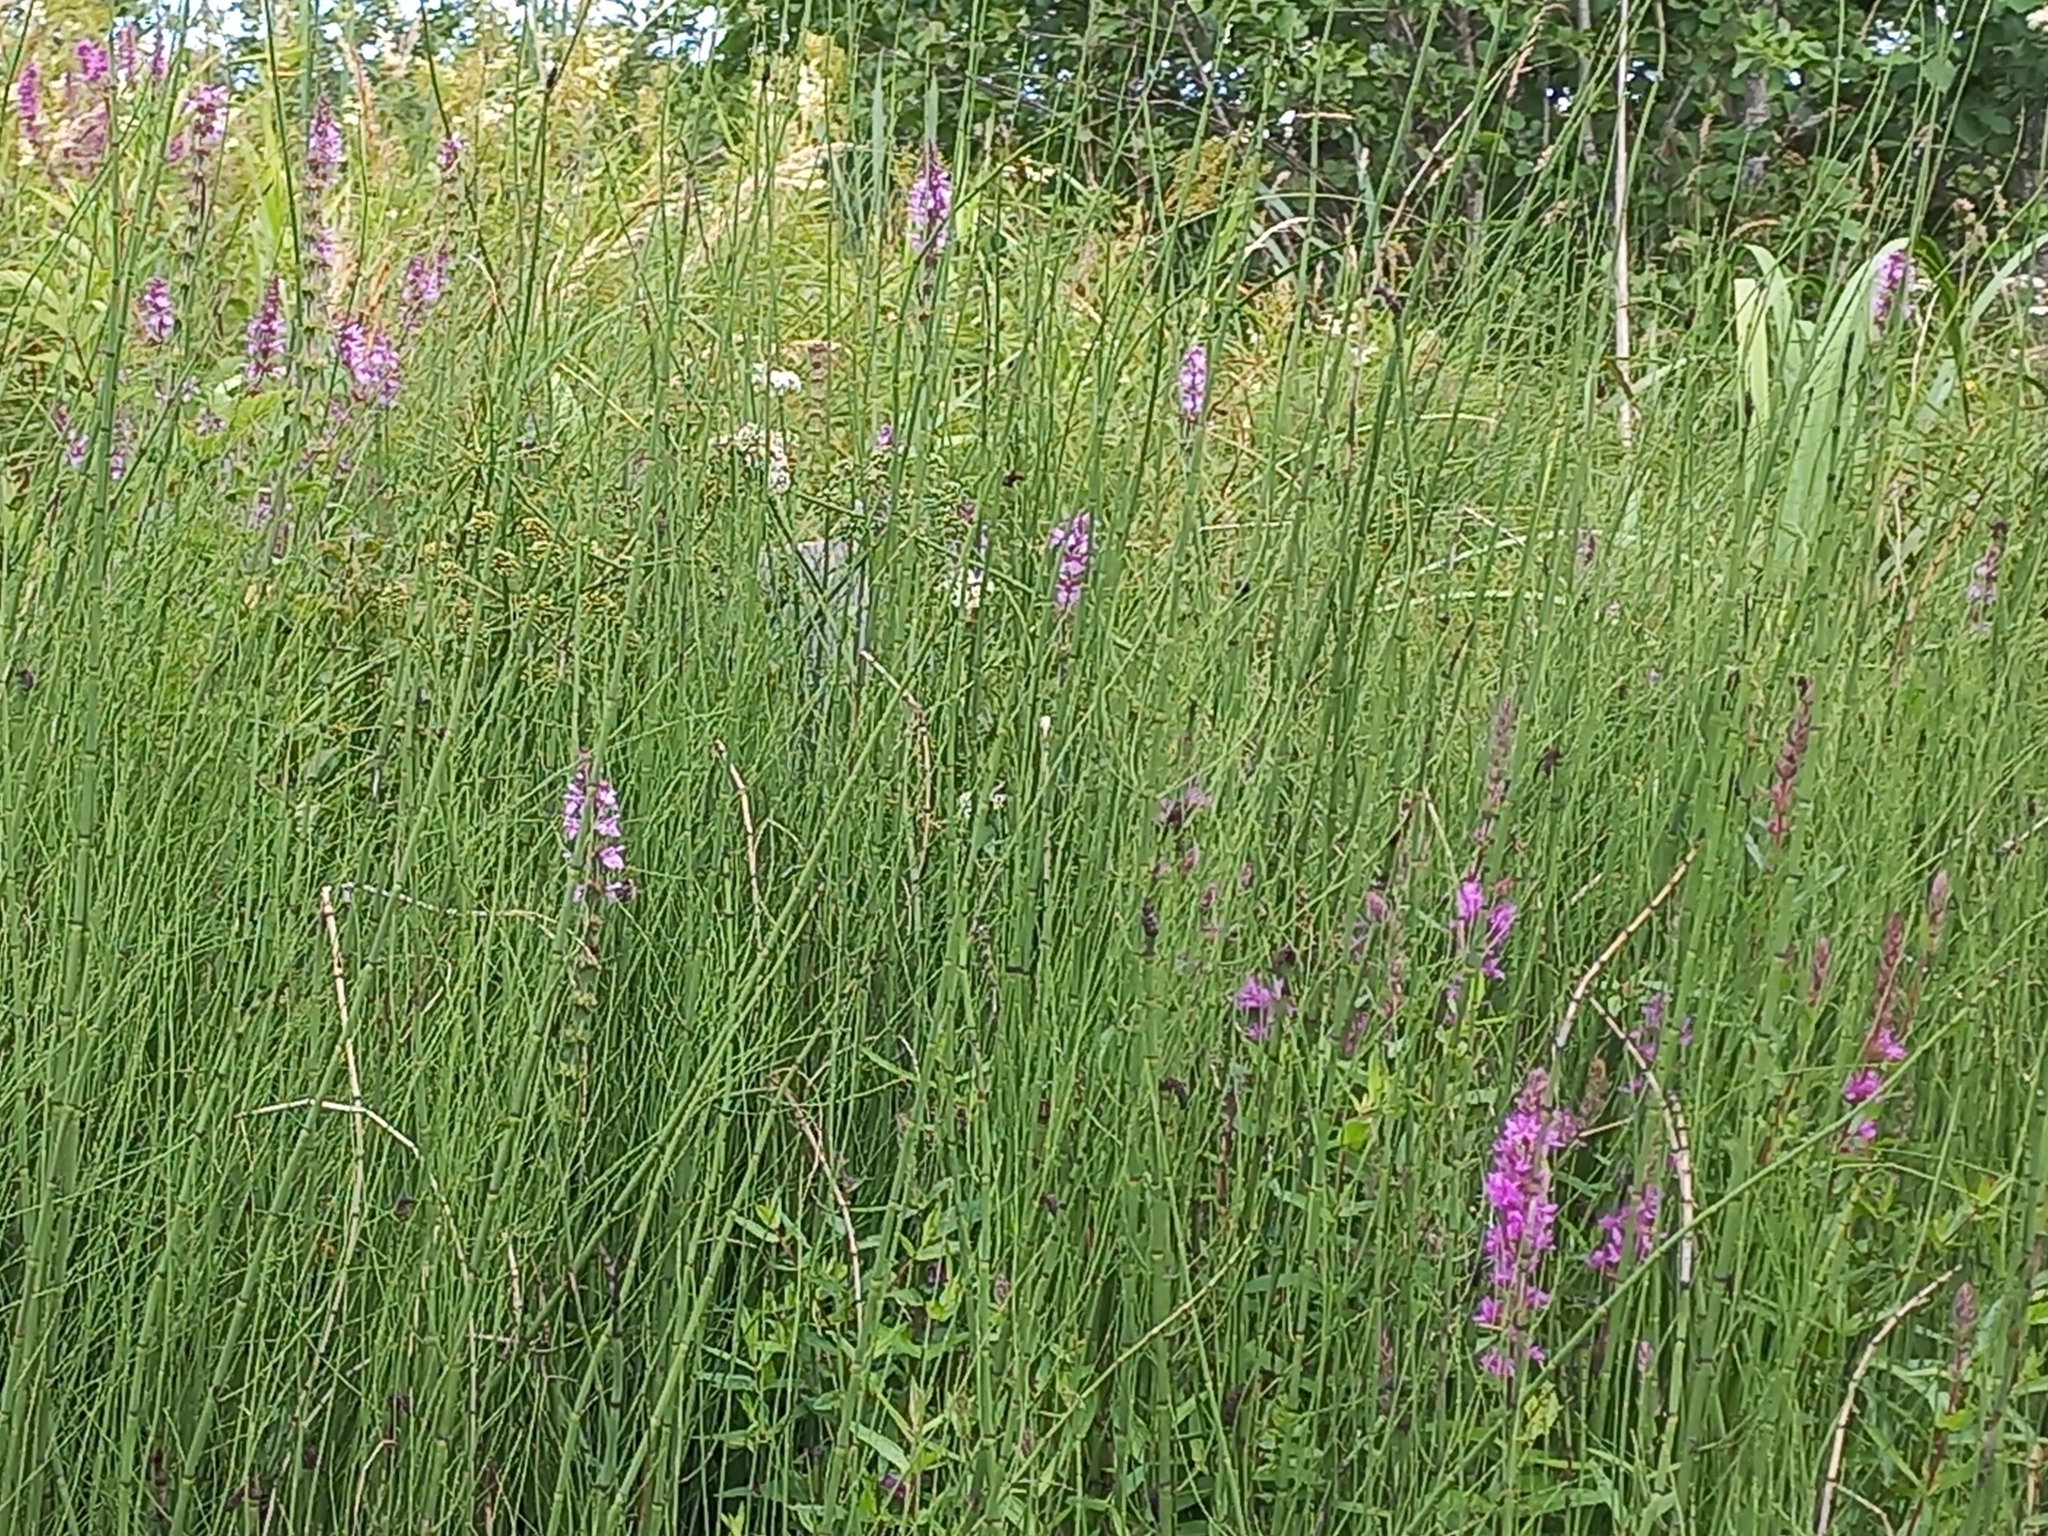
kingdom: Plantae
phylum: Tracheophyta
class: Magnoliopsida
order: Myrtales
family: Lythraceae
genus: Lythrum
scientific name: Lythrum salicaria
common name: Purple loosestrife
